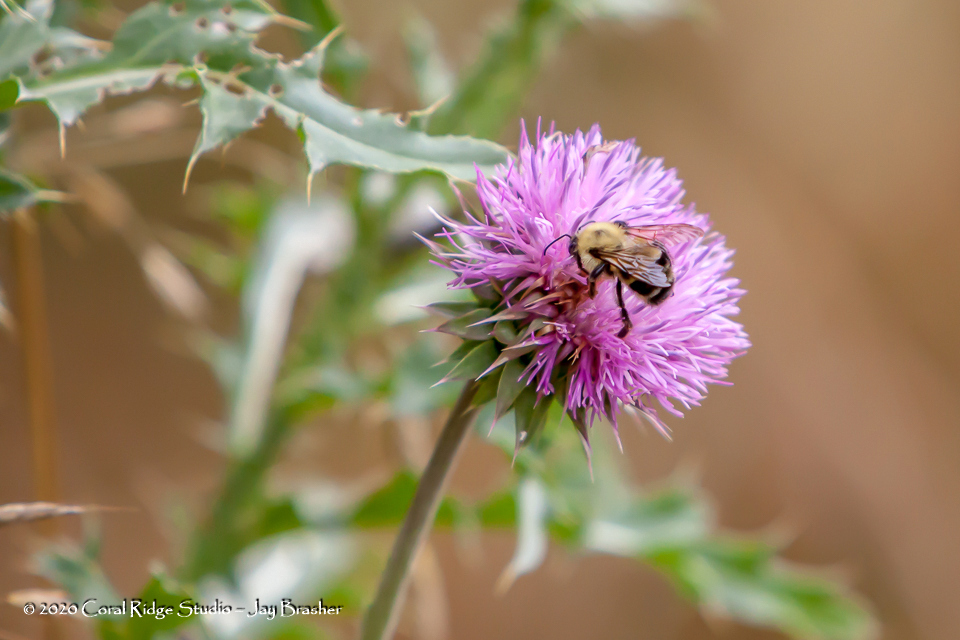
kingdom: Animalia
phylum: Arthropoda
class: Insecta
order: Hymenoptera
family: Apidae
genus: Bombus
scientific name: Bombus bimaculatus
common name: Two-spotted bumble bee
